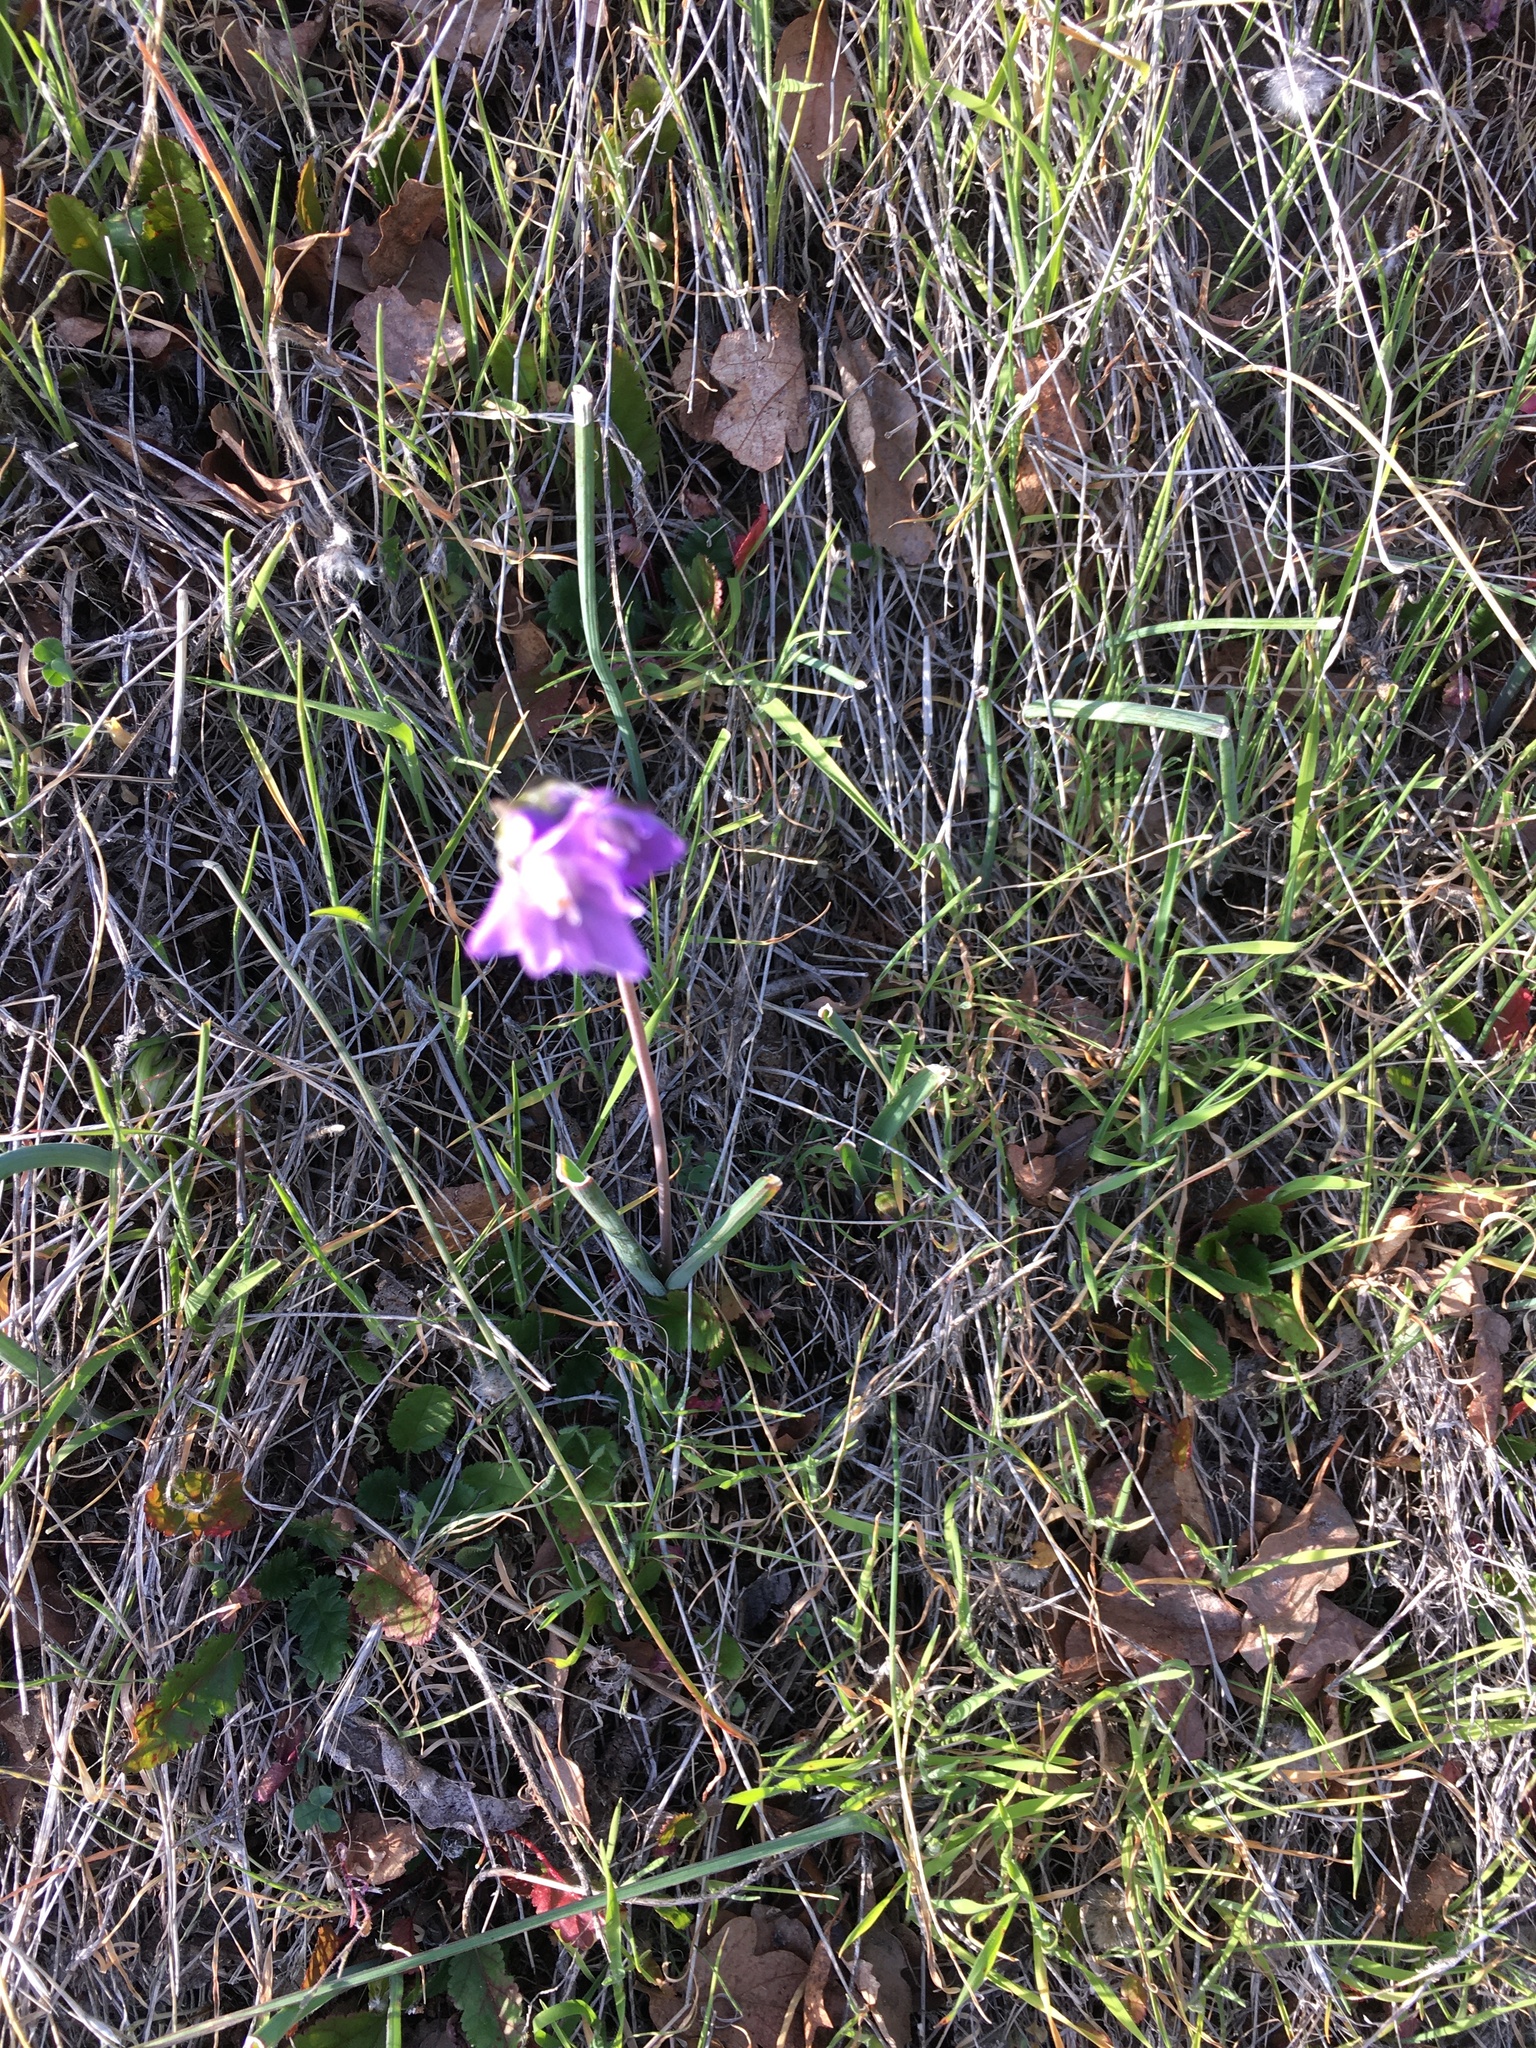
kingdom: Plantae
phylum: Tracheophyta
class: Liliopsida
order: Asparagales
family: Asparagaceae
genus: Dipterostemon
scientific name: Dipterostemon capitatus
